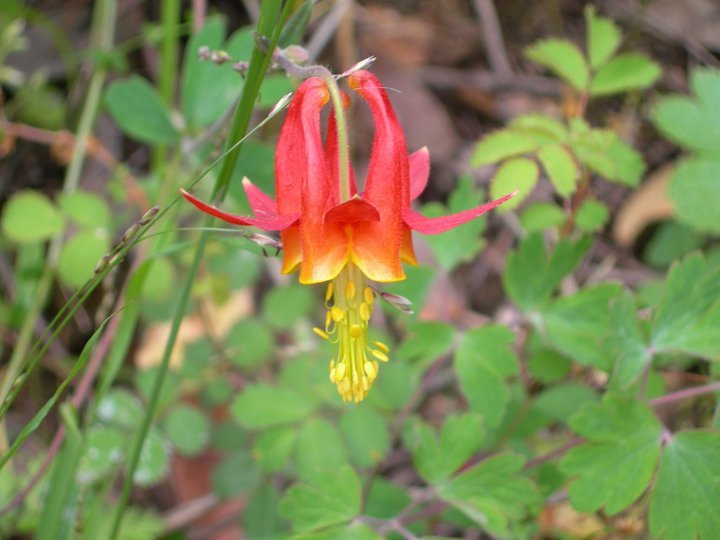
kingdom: Plantae
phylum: Tracheophyta
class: Magnoliopsida
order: Ranunculales
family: Ranunculaceae
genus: Aquilegia
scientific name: Aquilegia formosa
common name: Sitka columbine
